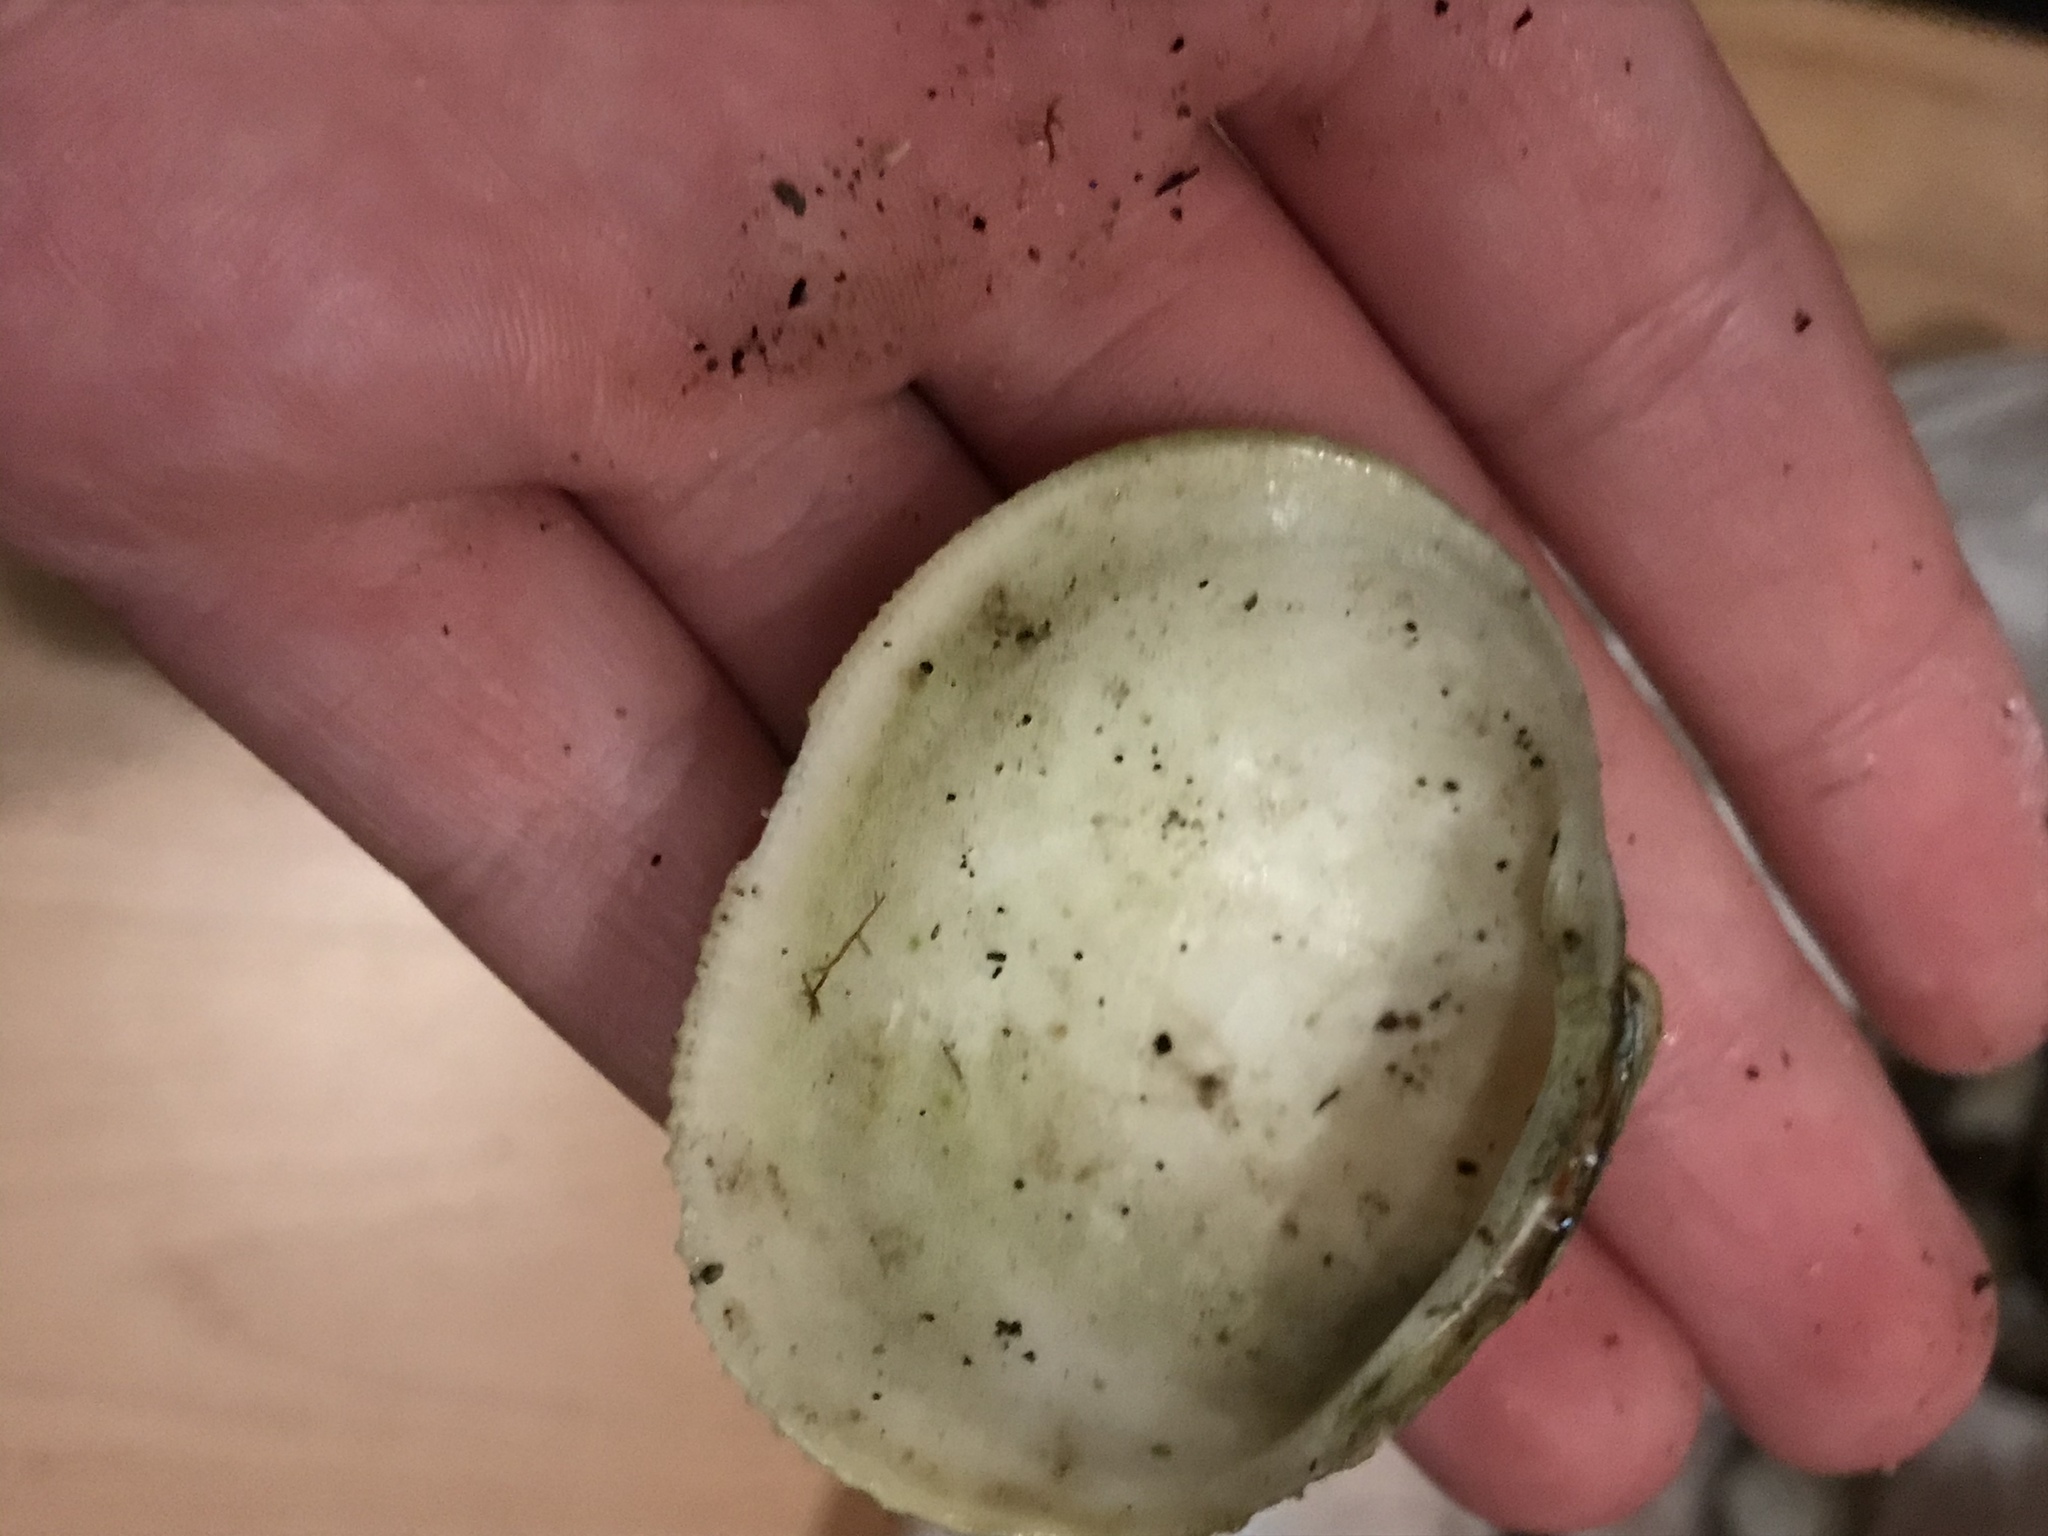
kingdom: Animalia
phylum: Mollusca
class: Bivalvia
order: Venerida
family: Veneridae
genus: Leukoma
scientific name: Leukoma staminea
